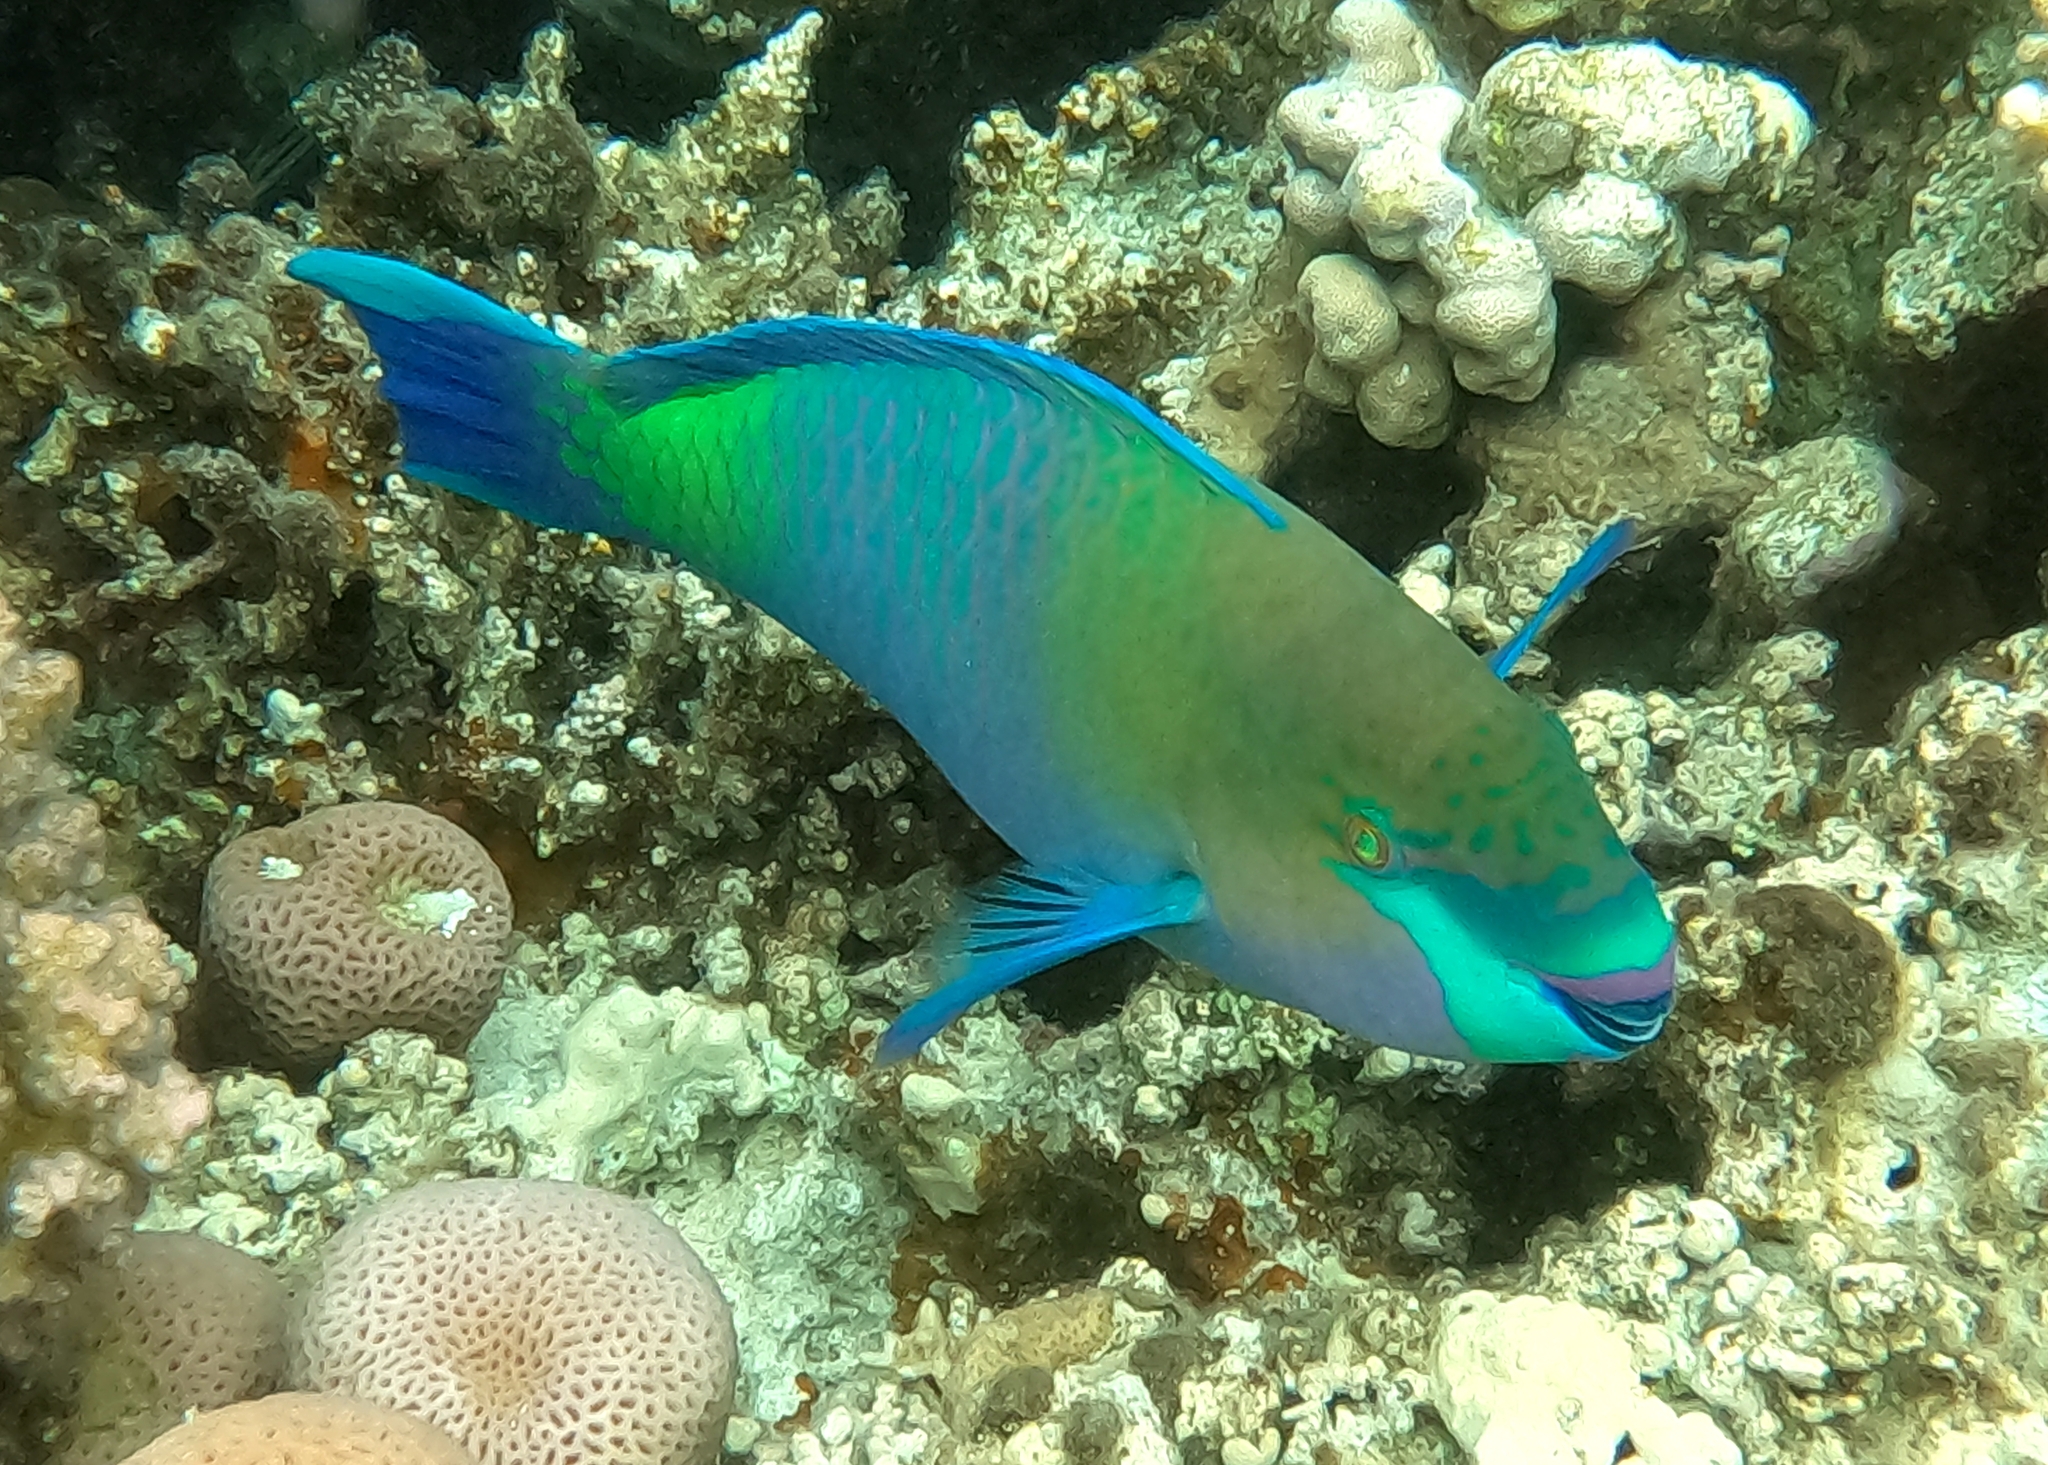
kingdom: Animalia
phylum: Chordata
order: Perciformes
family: Scaridae
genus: Scarus
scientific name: Scarus ferrugineus
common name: Rusty parrotfish
